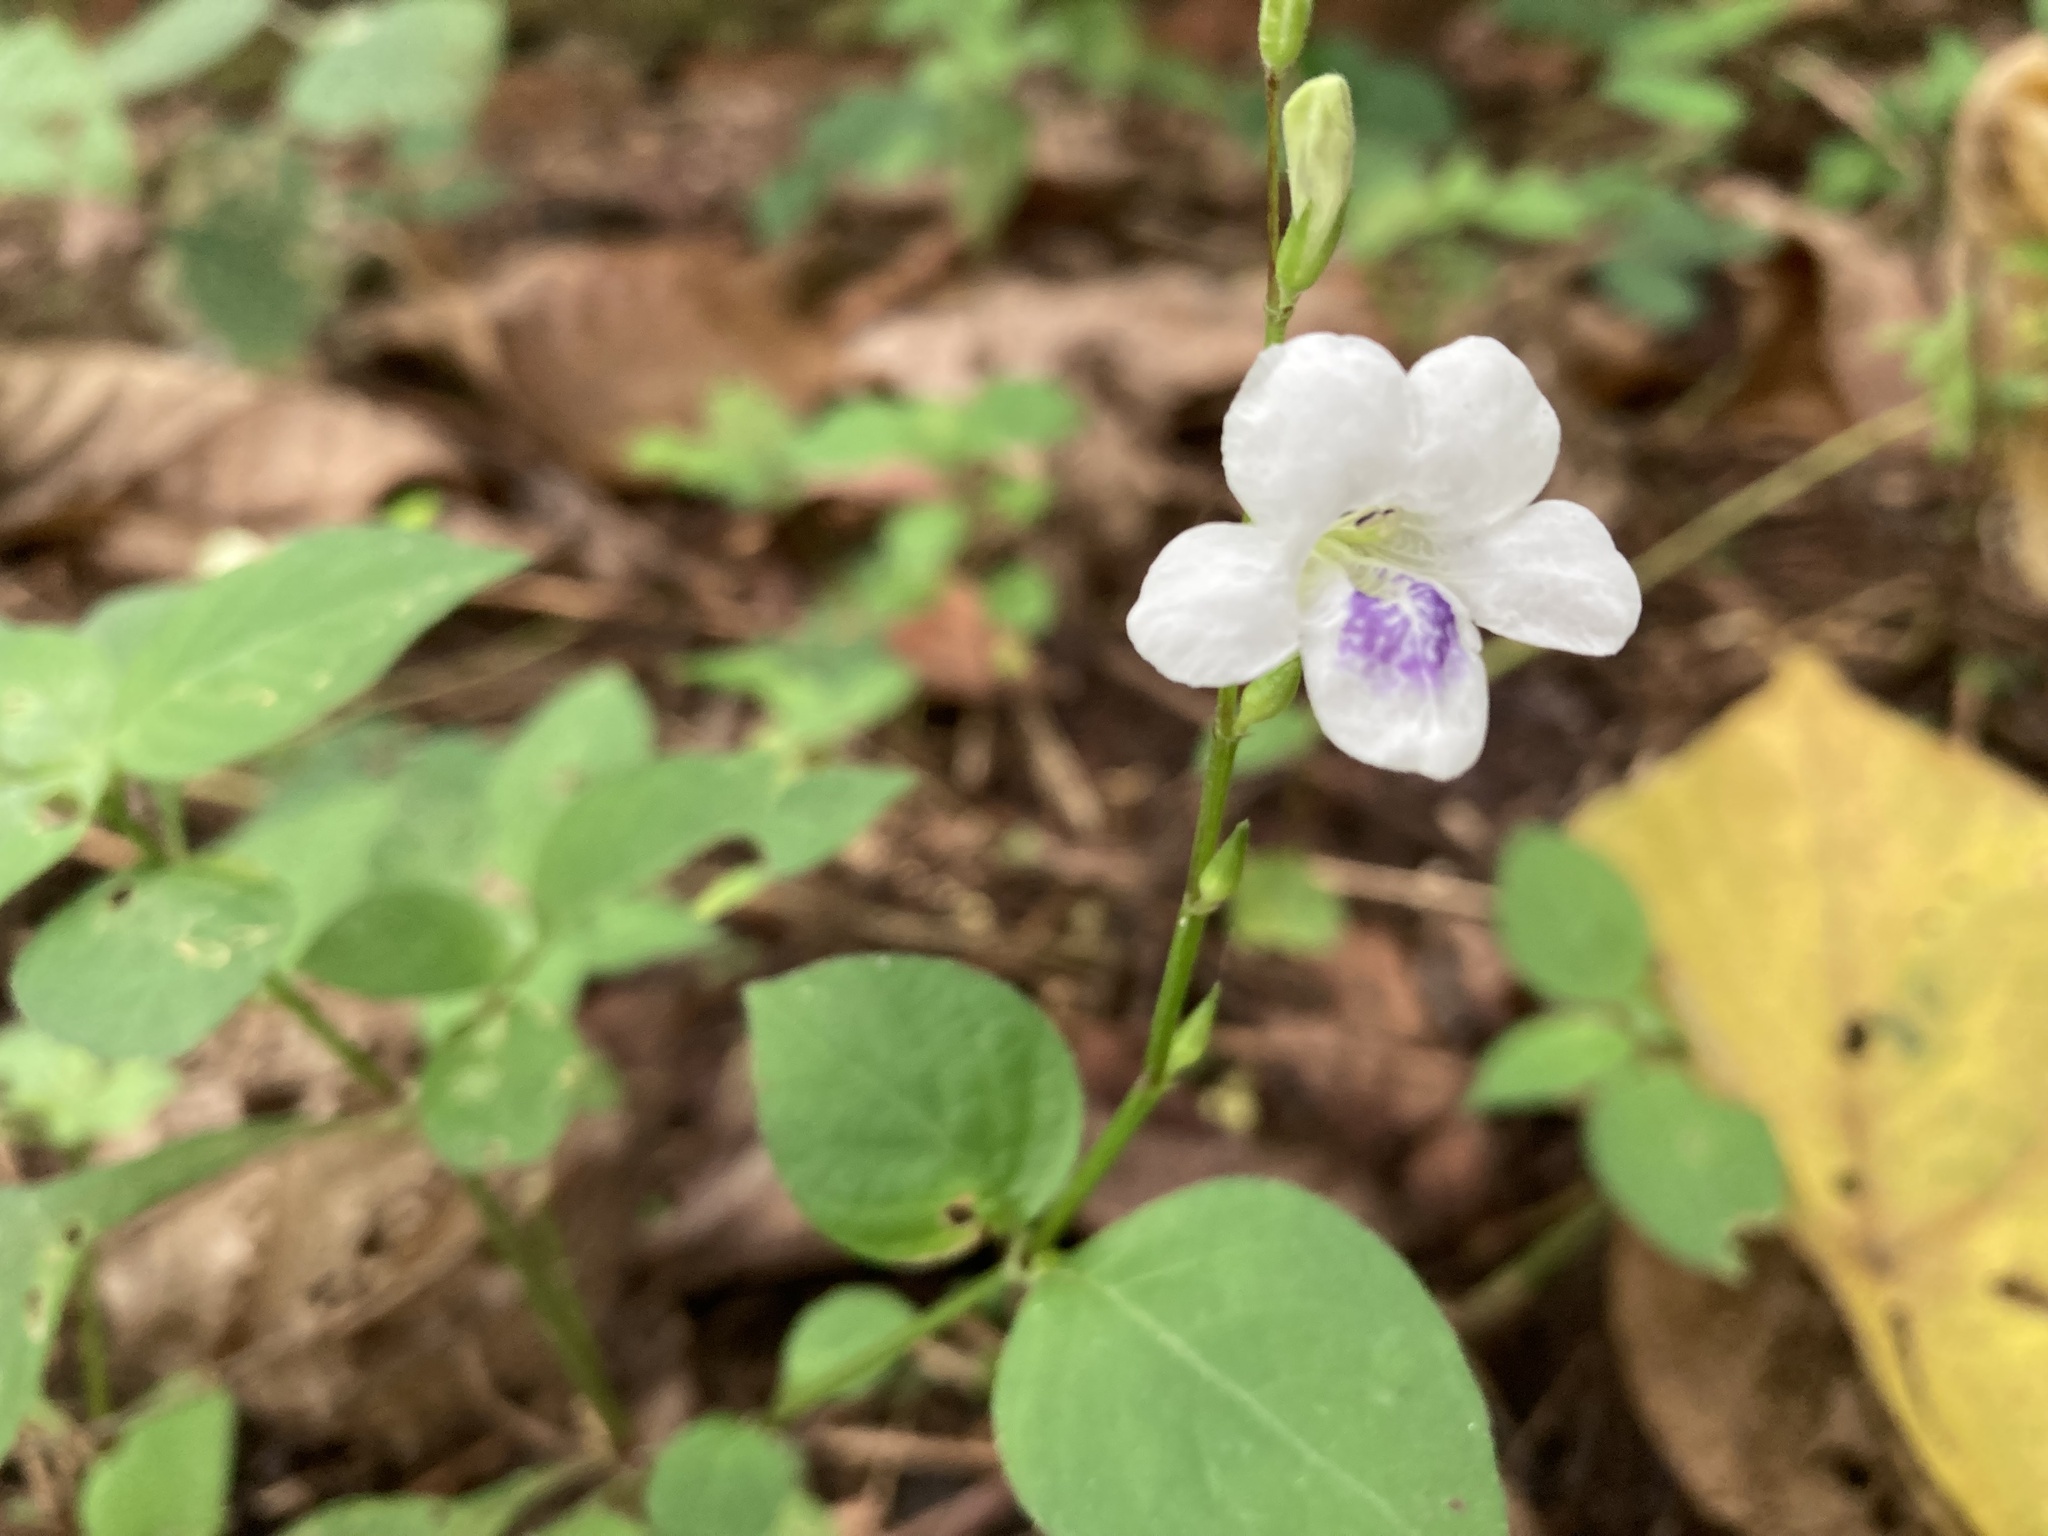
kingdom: Plantae
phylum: Tracheophyta
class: Magnoliopsida
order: Lamiales
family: Acanthaceae
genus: Asystasia
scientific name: Asystasia intrusa
